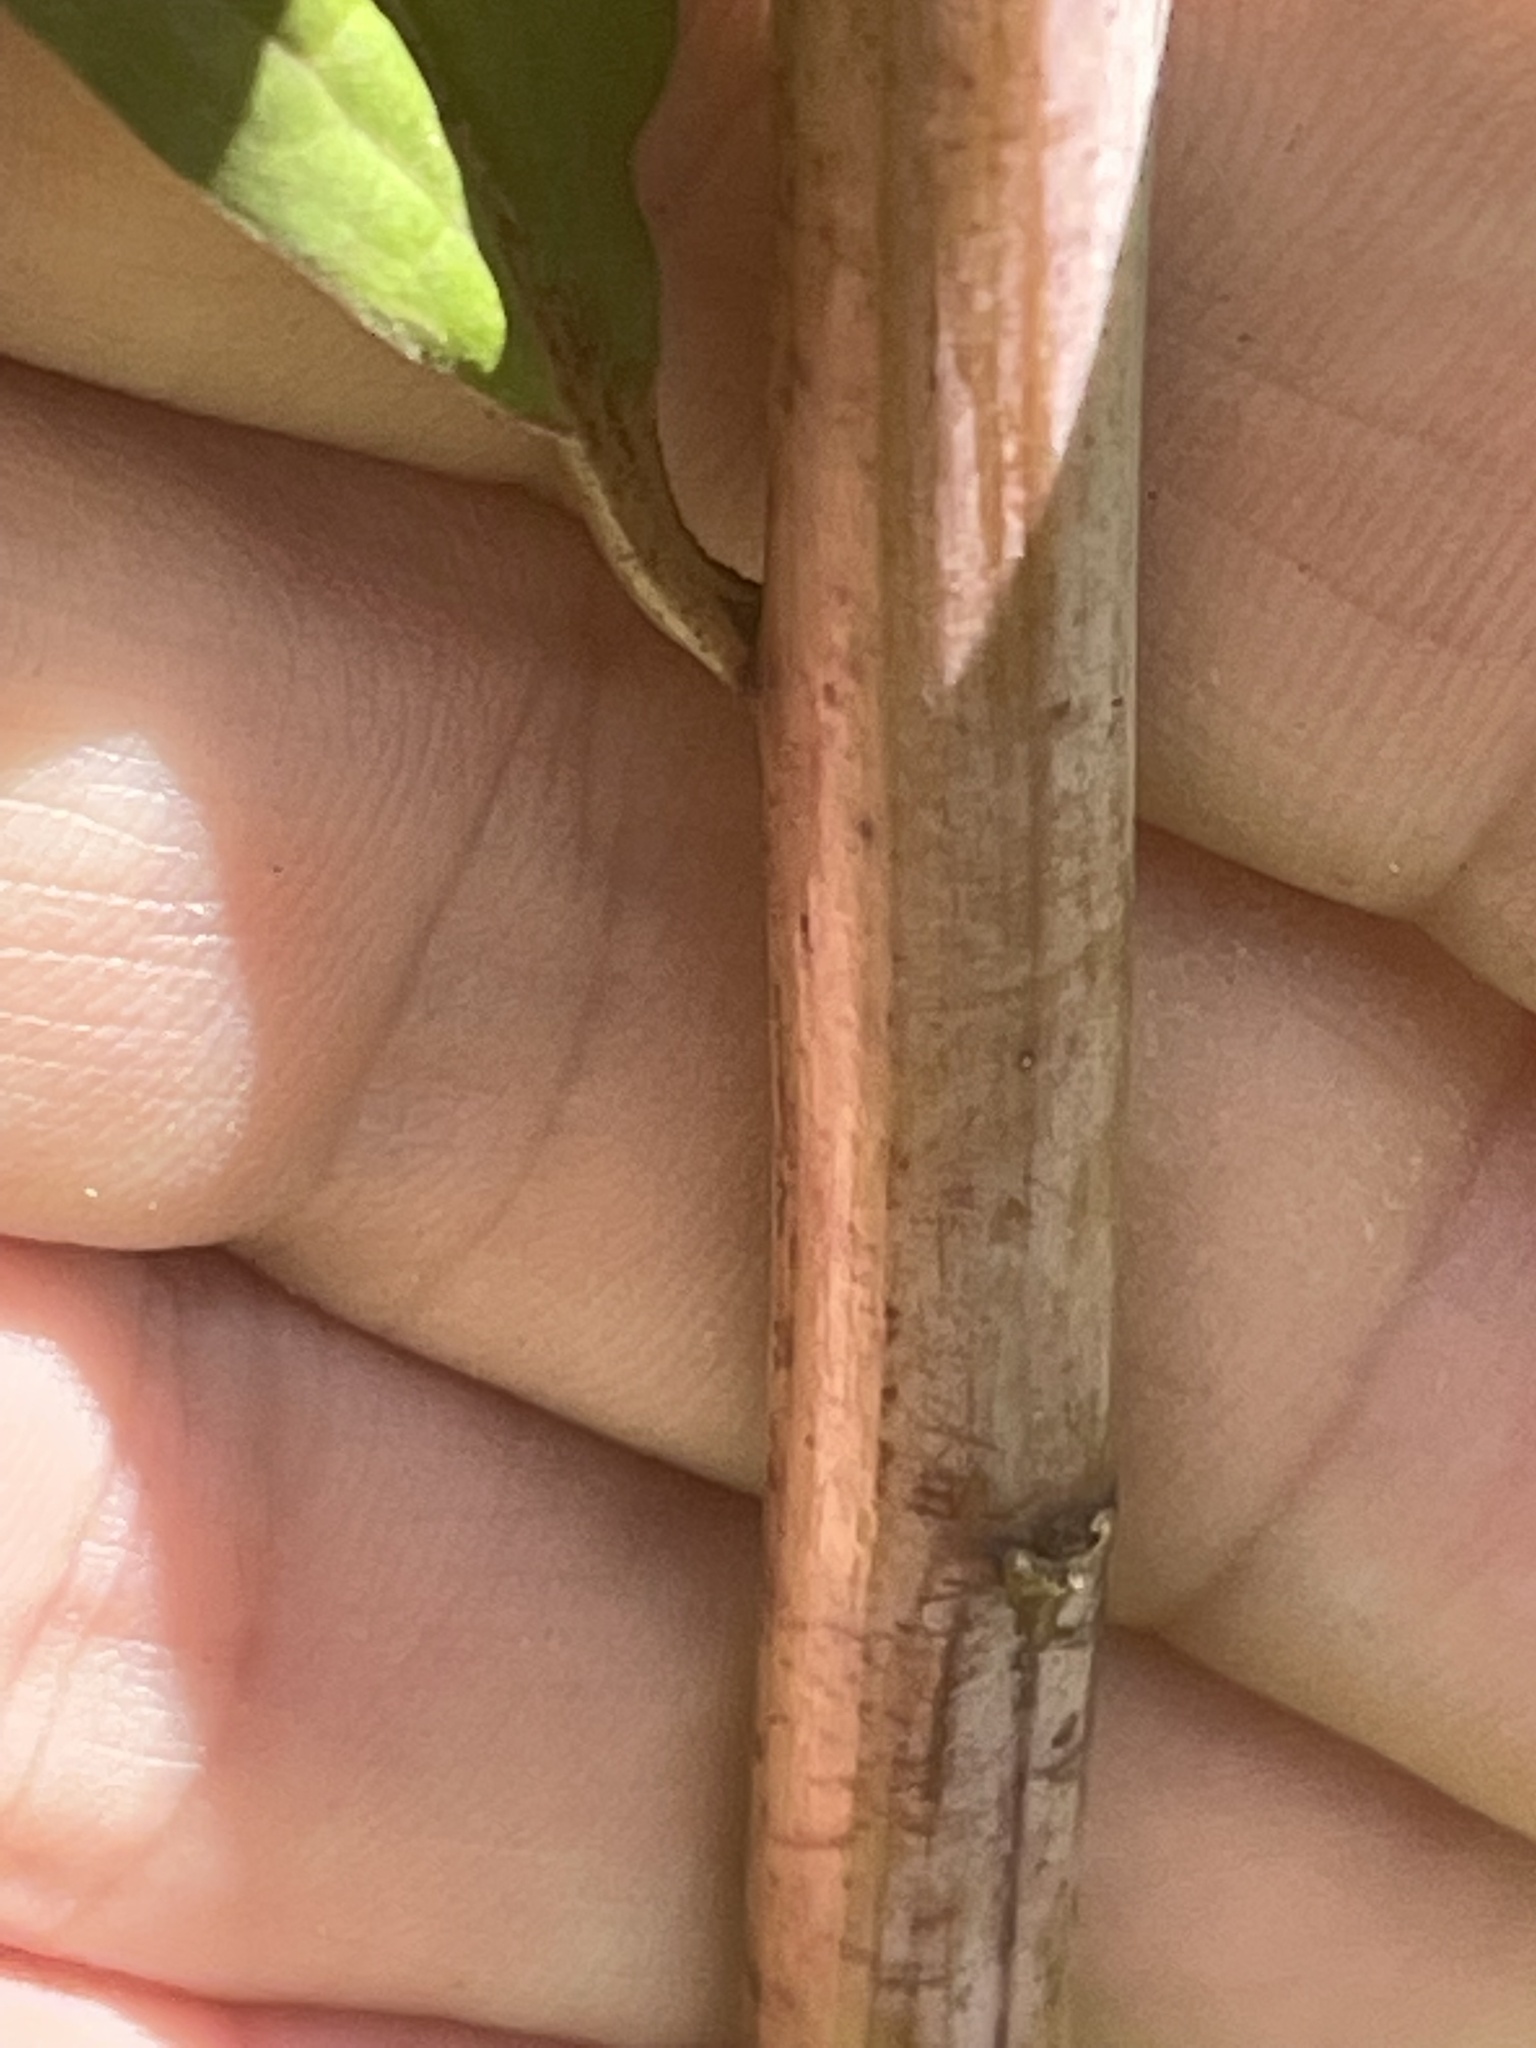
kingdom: Plantae
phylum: Tracheophyta
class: Magnoliopsida
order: Asterales
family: Asteraceae
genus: Solidago
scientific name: Solidago gigantea
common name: Giant goldenrod
